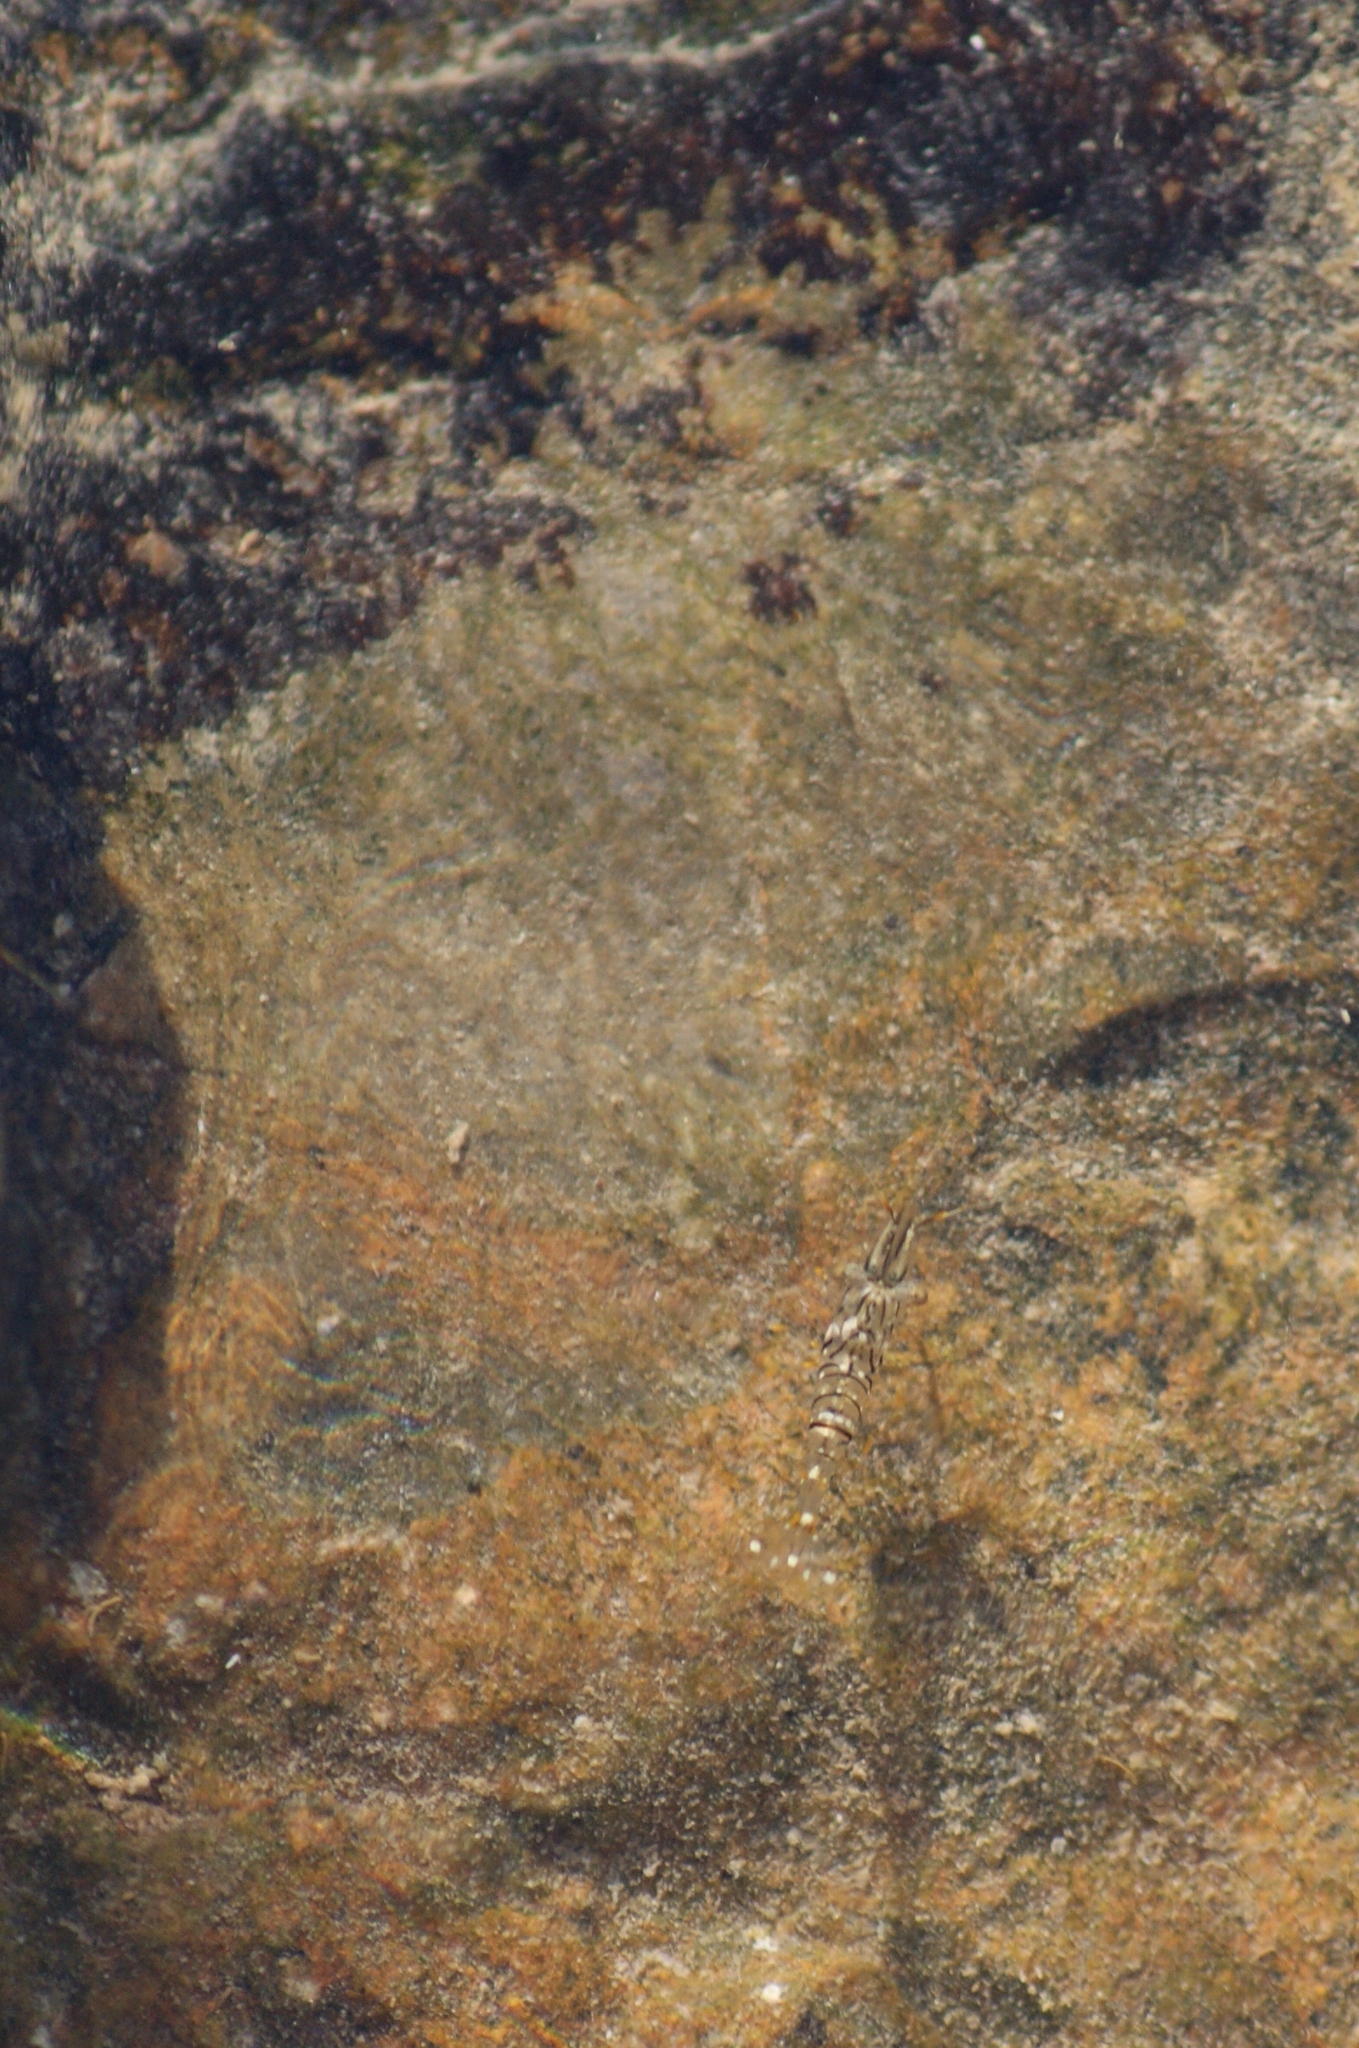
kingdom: Animalia
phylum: Arthropoda
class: Malacostraca
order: Decapoda
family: Palaemonidae
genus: Palaemon
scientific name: Palaemon elegans
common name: Grass prawm
